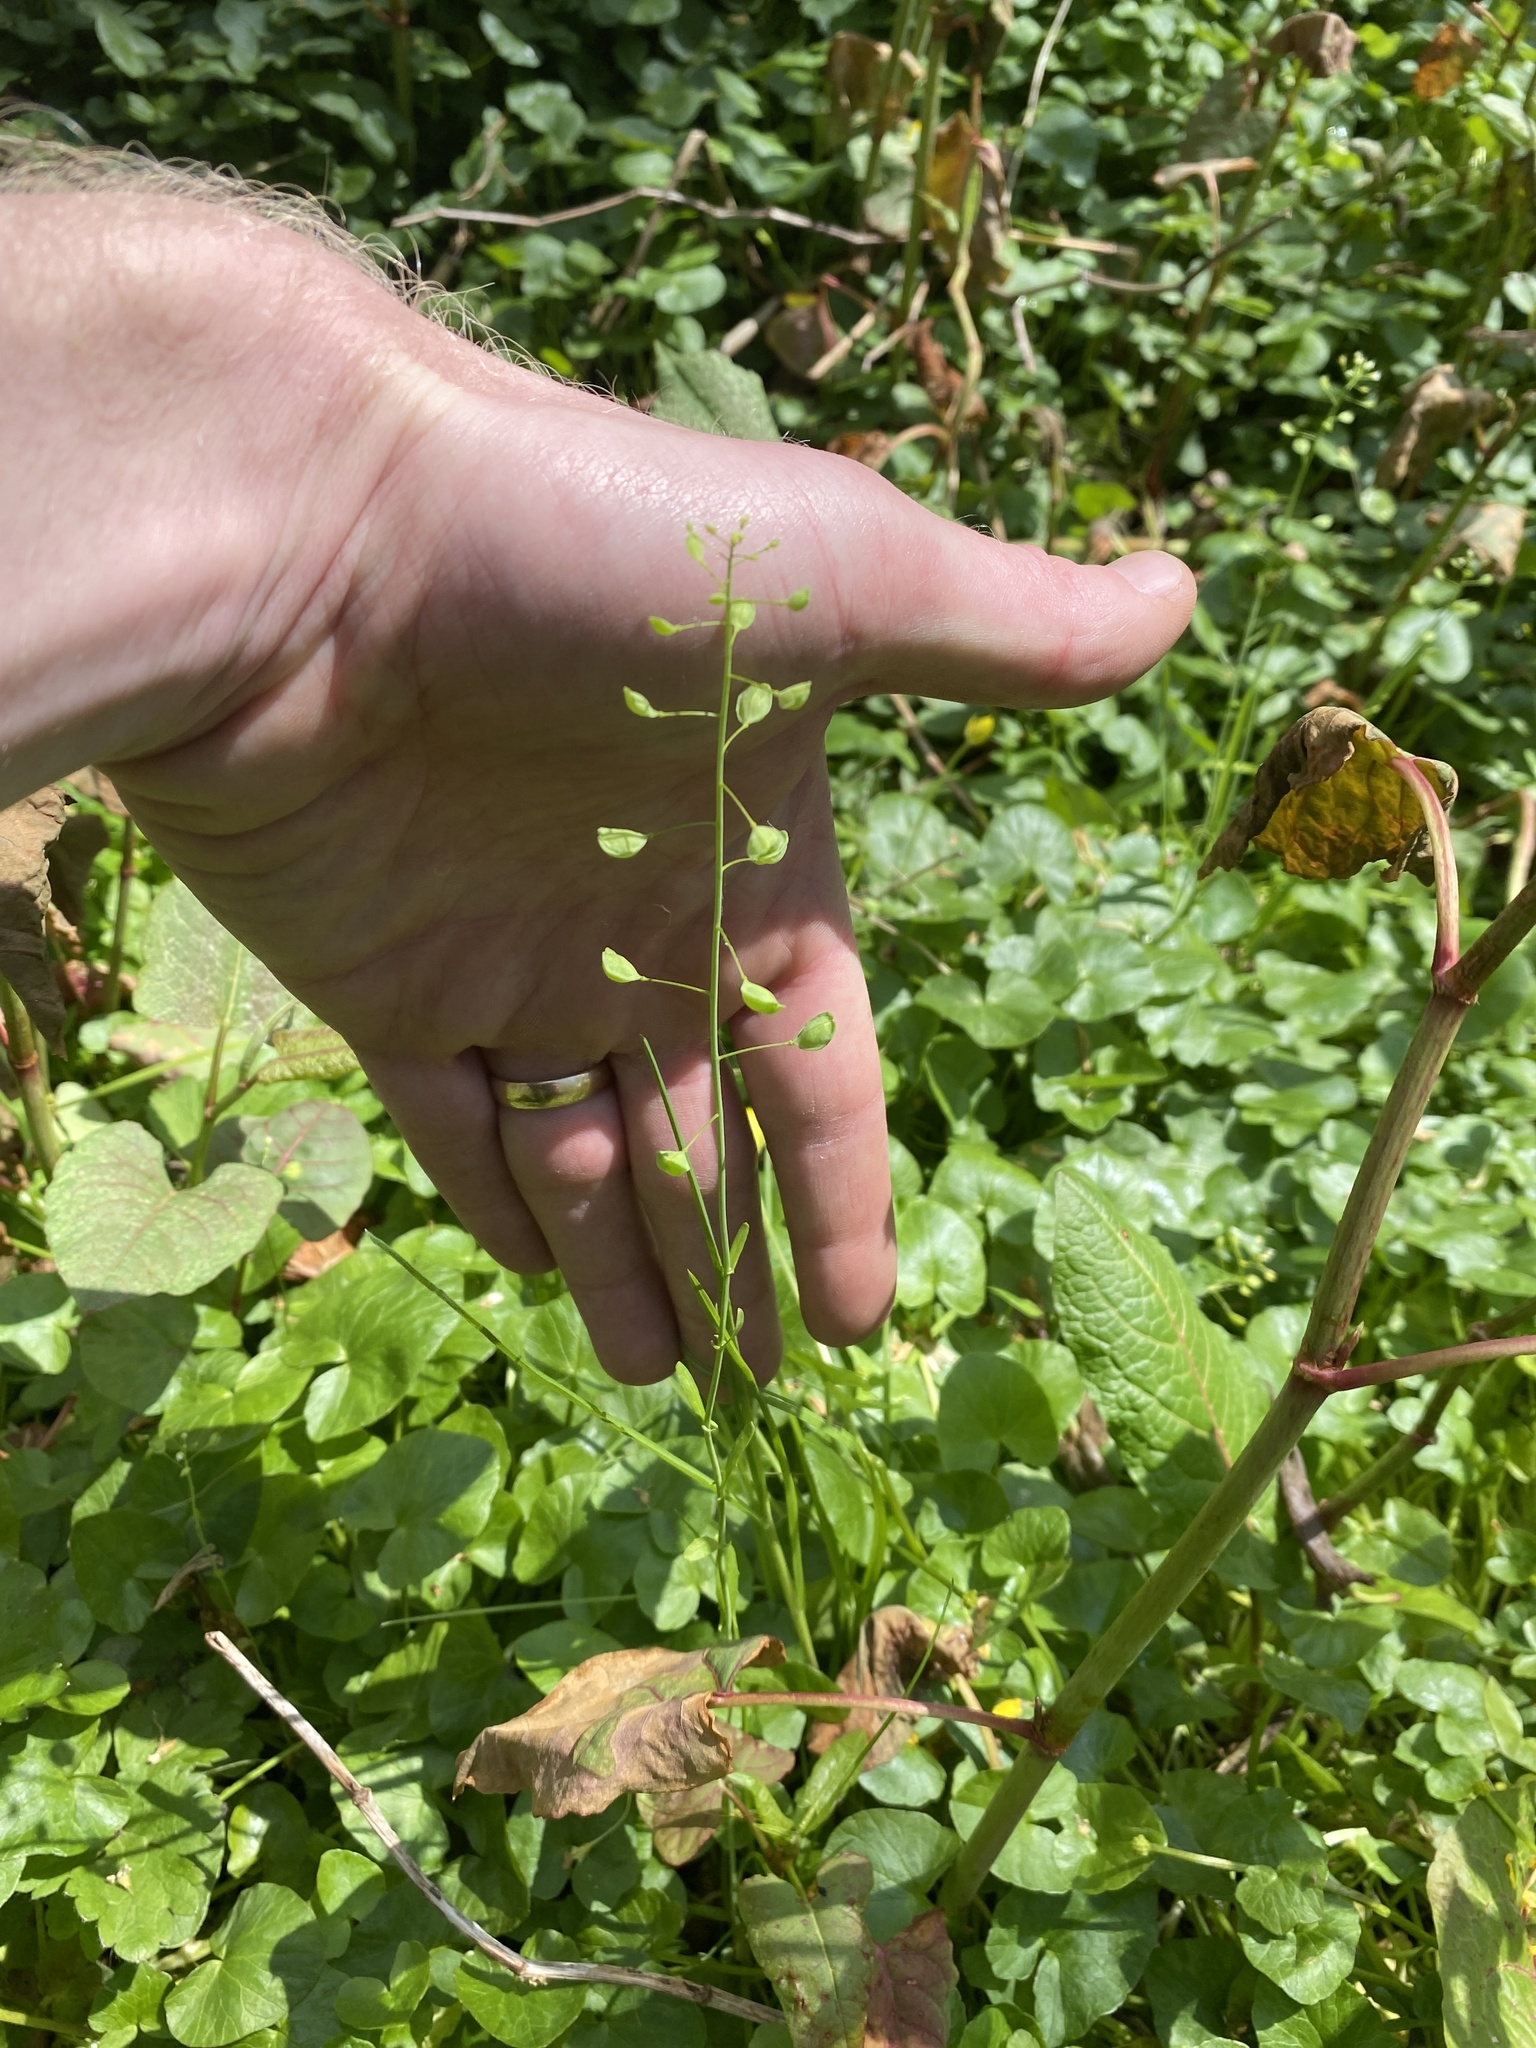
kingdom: Plantae
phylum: Tracheophyta
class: Magnoliopsida
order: Brassicales
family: Brassicaceae
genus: Mummenhoffia
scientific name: Mummenhoffia alliacea
